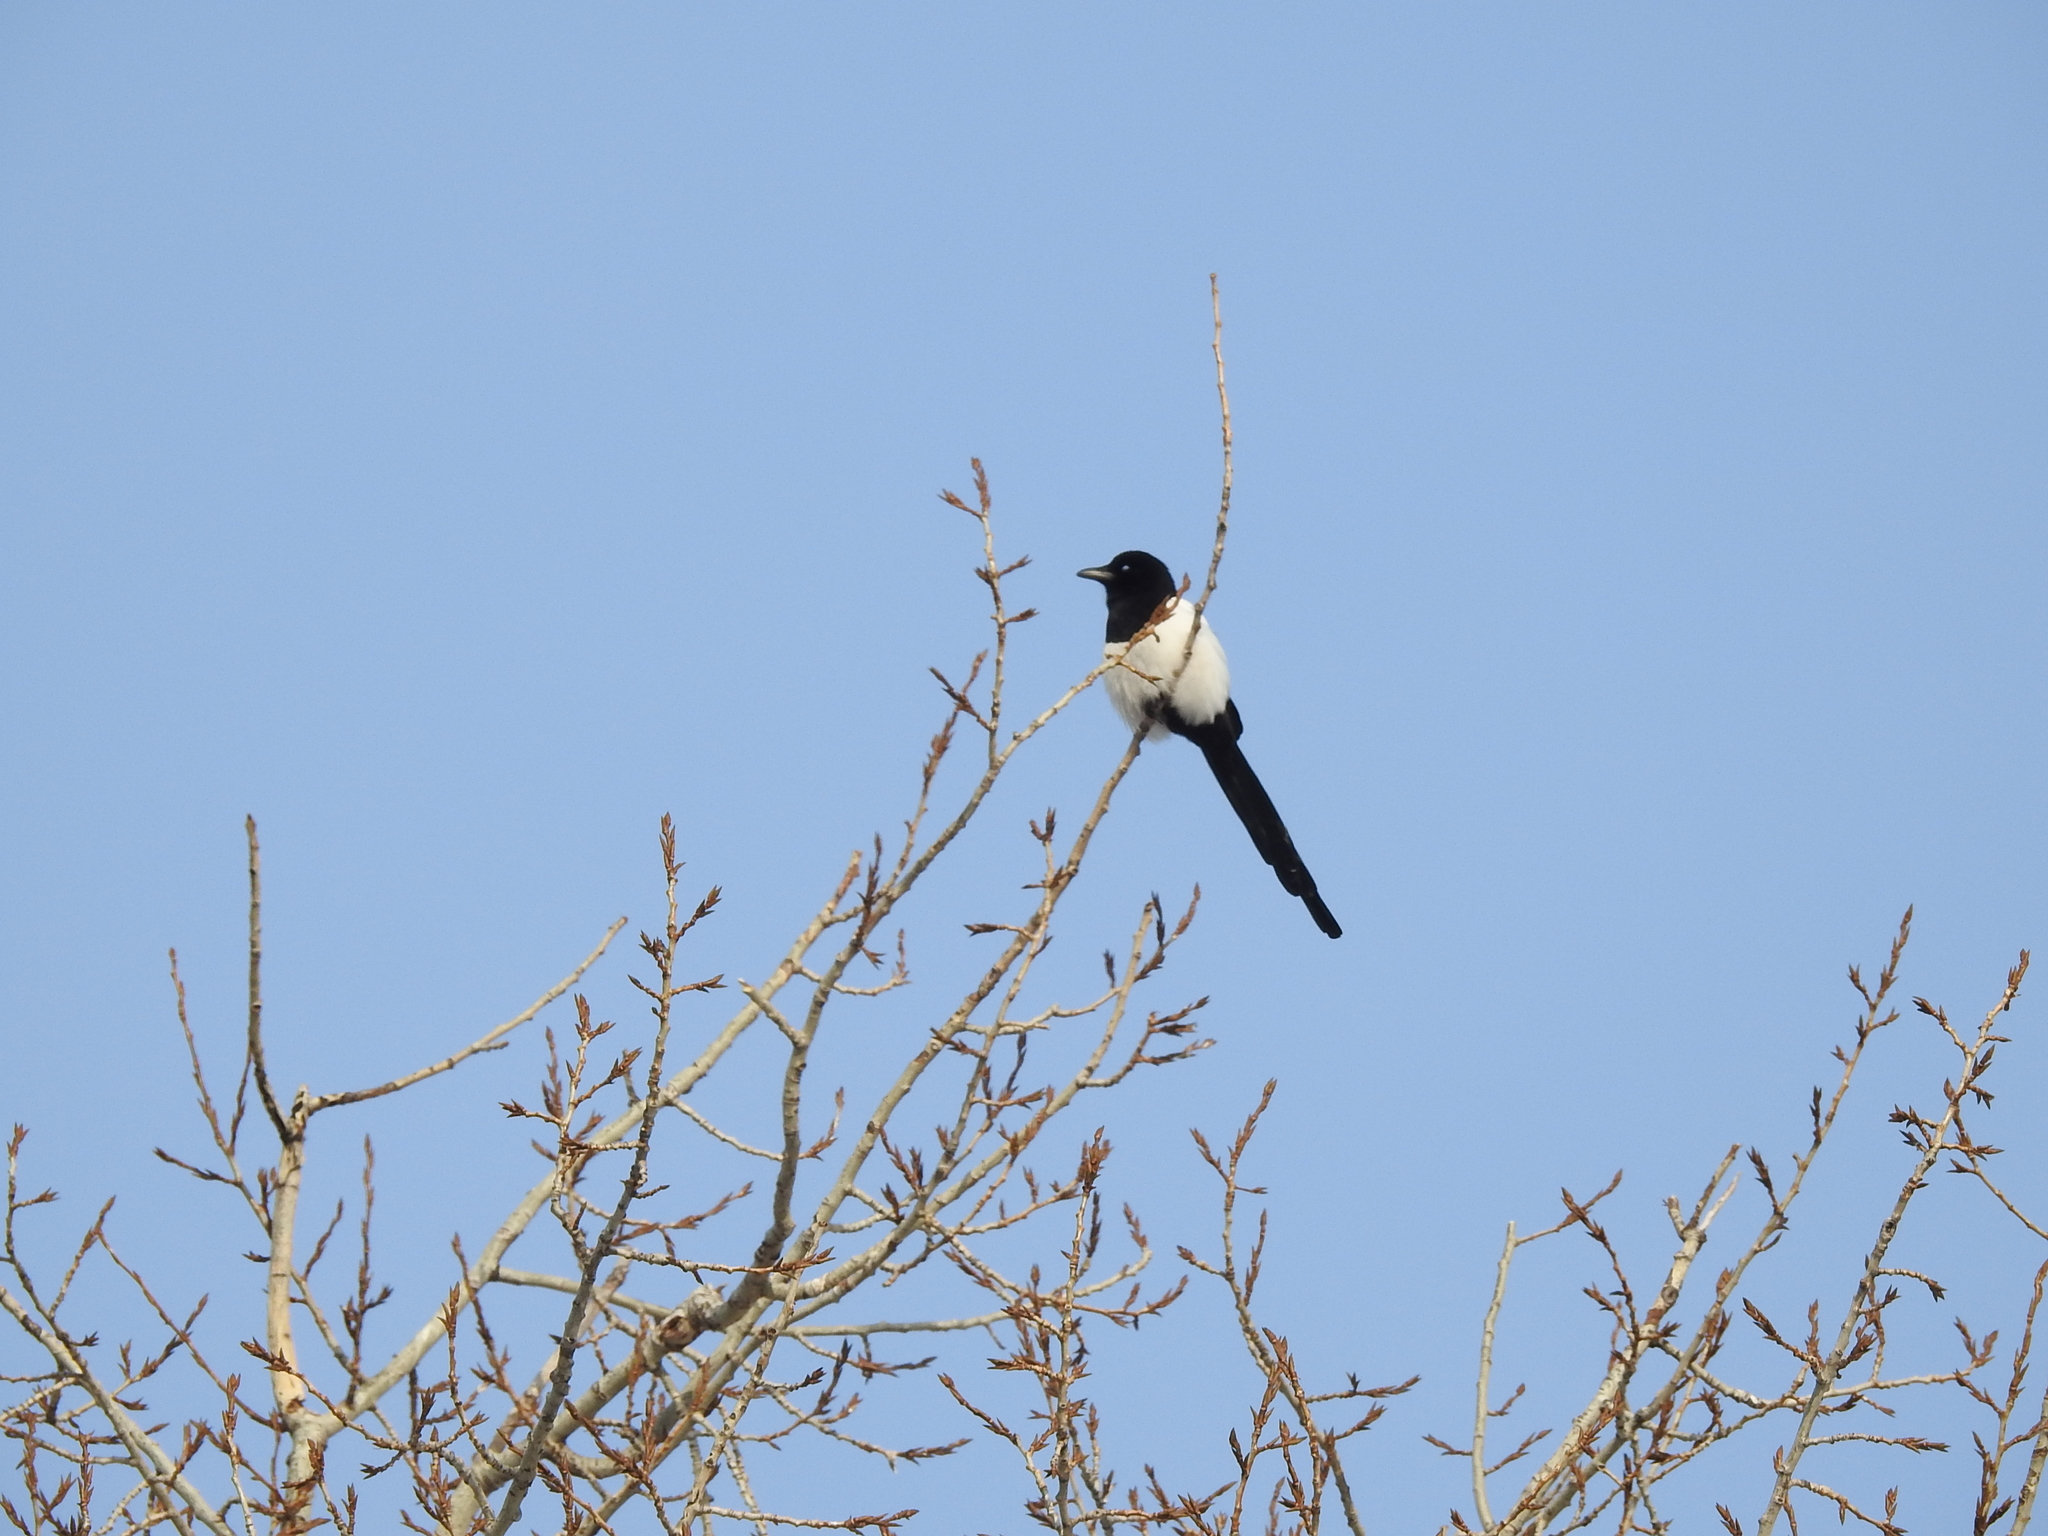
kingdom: Animalia
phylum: Chordata
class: Aves
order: Passeriformes
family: Corvidae
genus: Pica
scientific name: Pica pica
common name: Eurasian magpie
